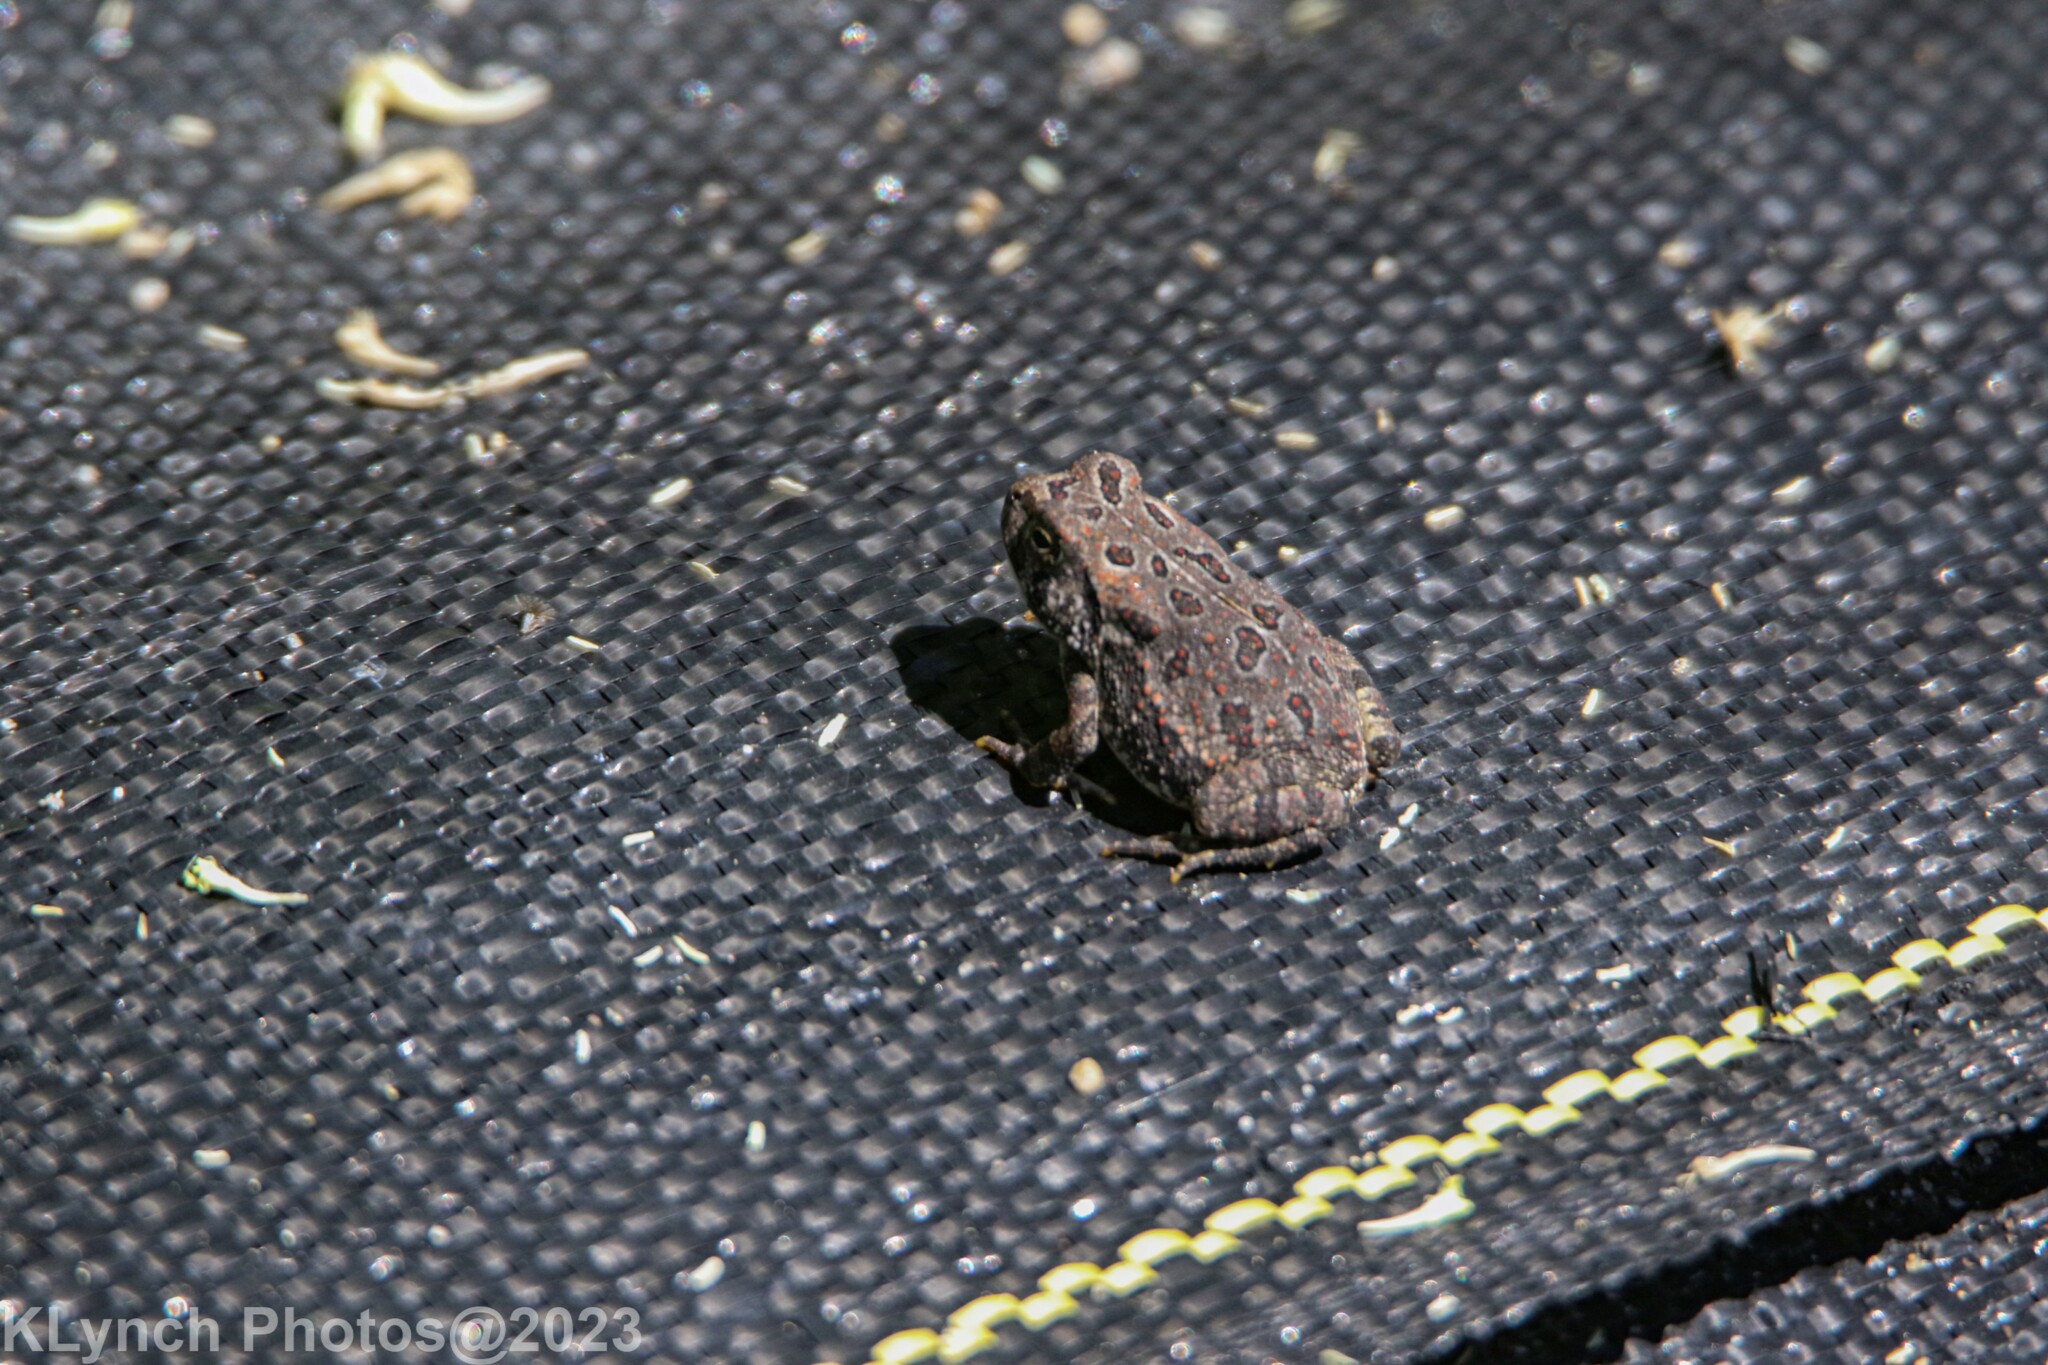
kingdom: Animalia
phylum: Chordata
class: Amphibia
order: Anura
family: Bufonidae
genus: Anaxyrus
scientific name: Anaxyrus fowleri
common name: Fowler's toad
